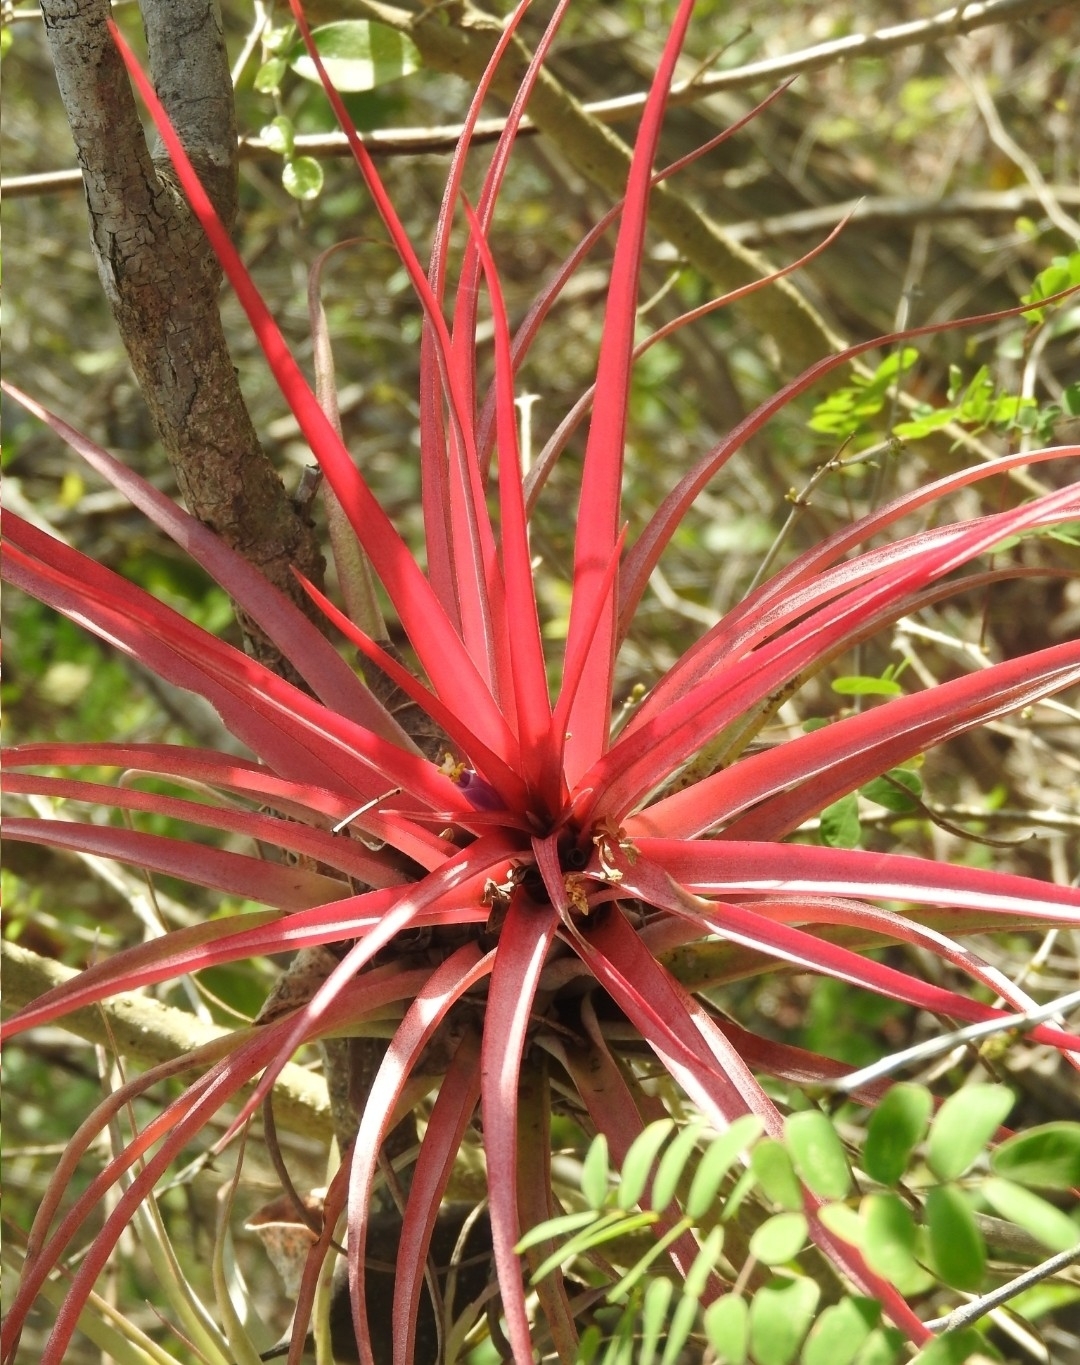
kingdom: Plantae
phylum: Tracheophyta
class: Liliopsida
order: Poales
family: Bromeliaceae
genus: Tillandsia
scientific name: Tillandsia fasciculata
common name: Giant airplant
